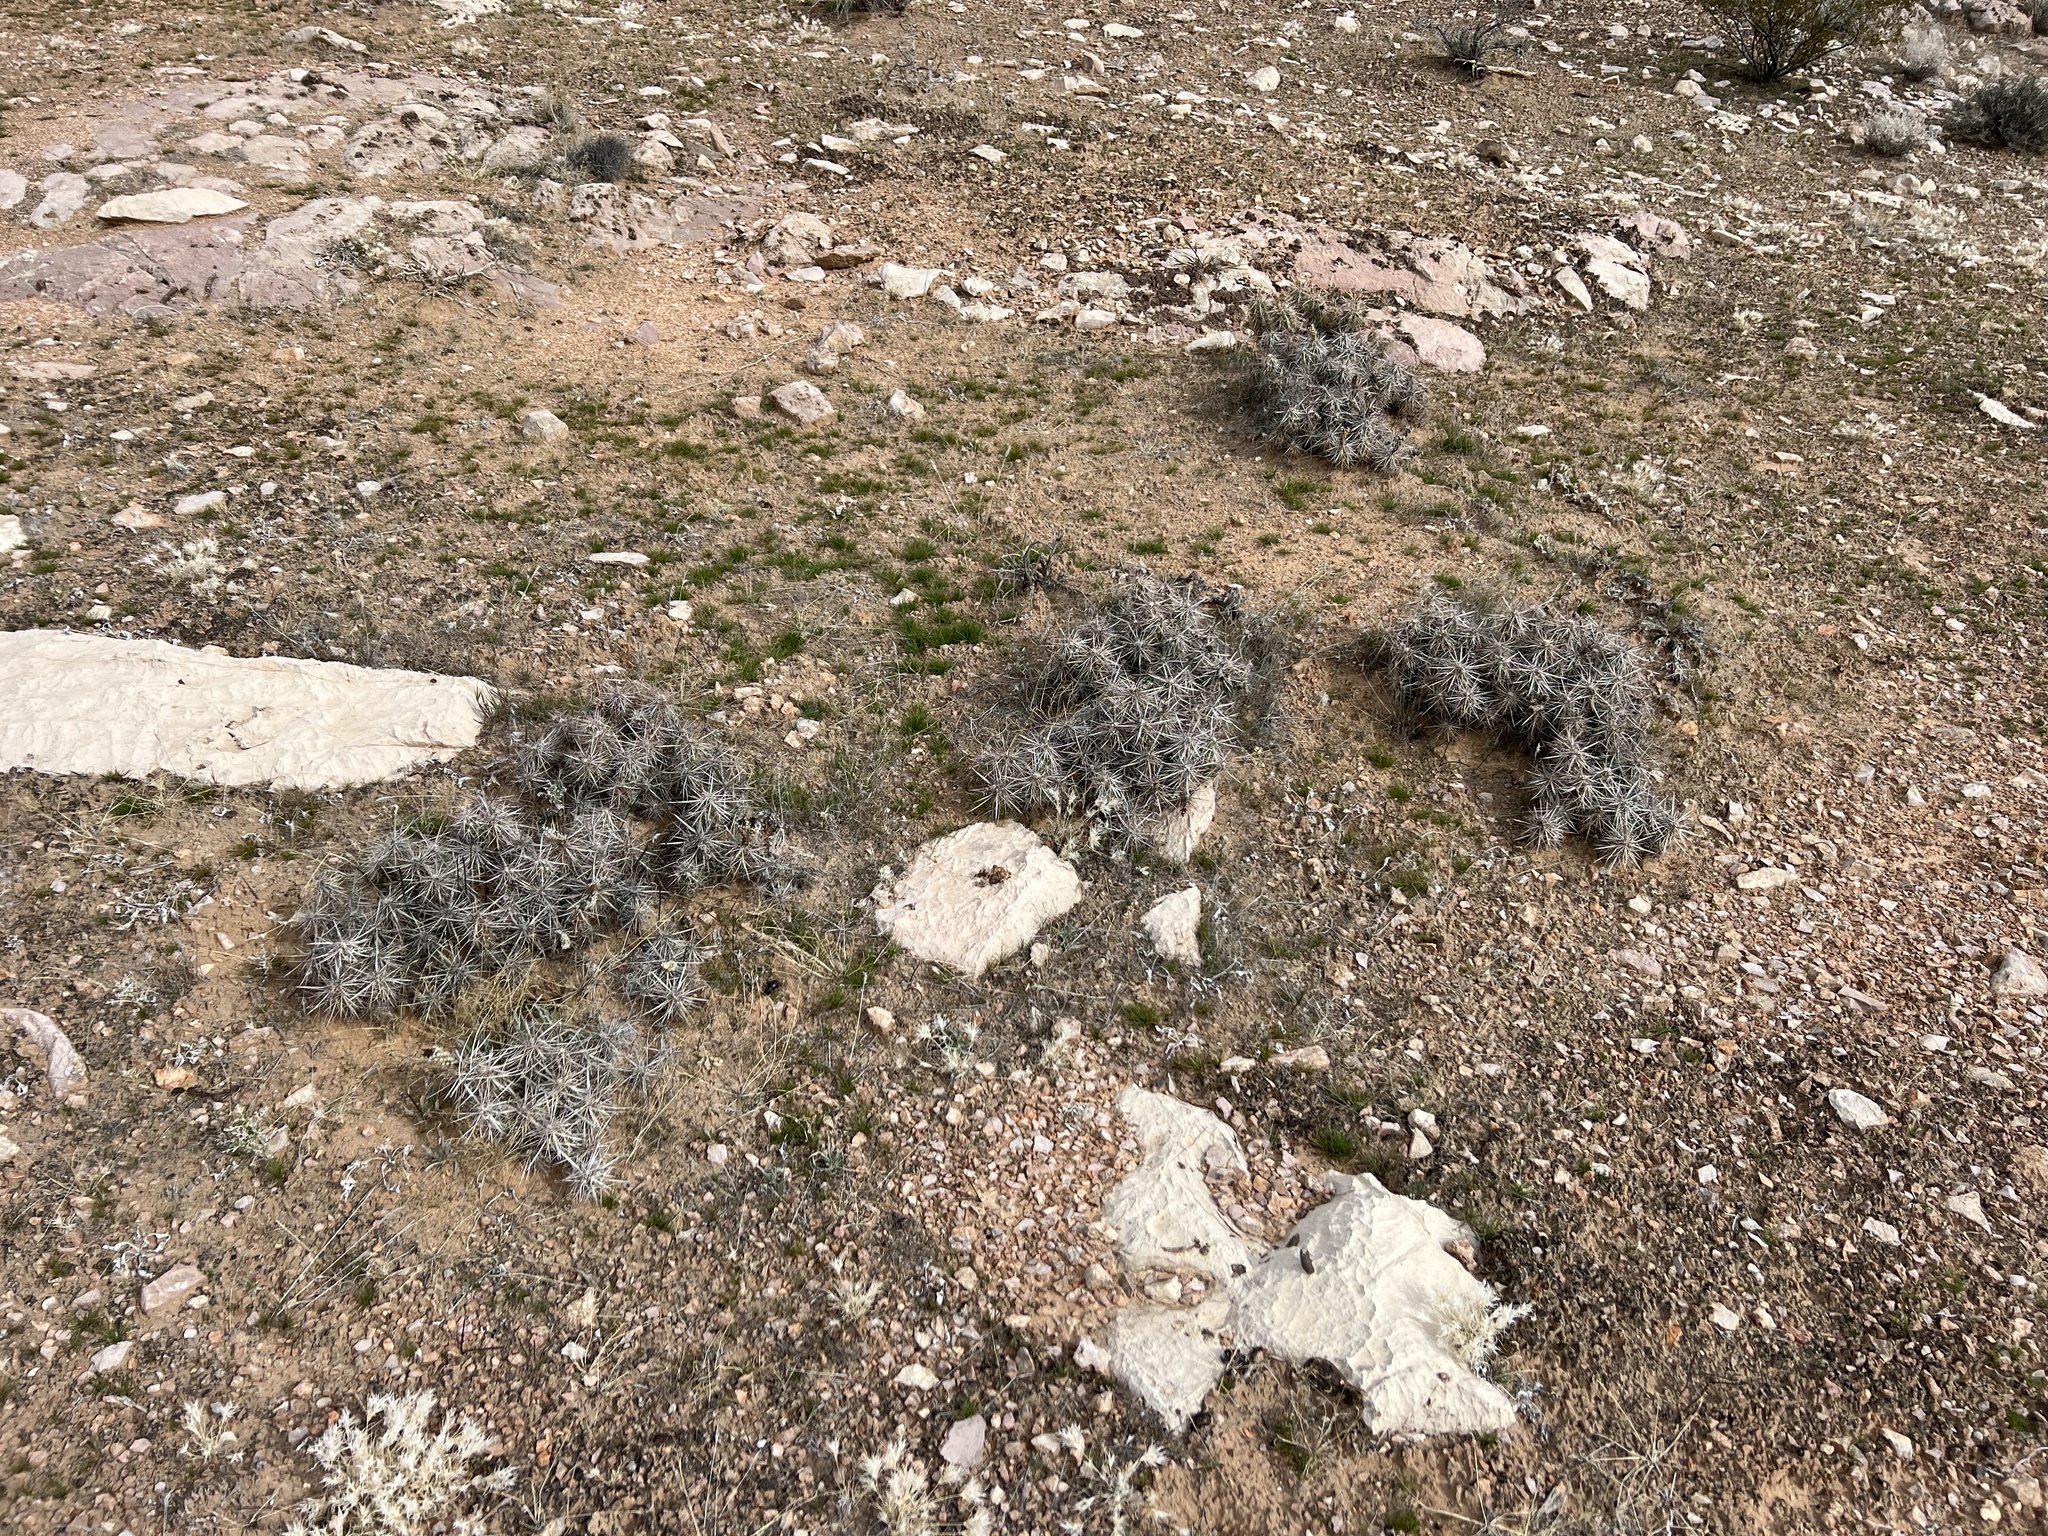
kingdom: Plantae
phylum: Tracheophyta
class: Magnoliopsida
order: Caryophyllales
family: Cactaceae
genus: Grusonia
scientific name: Grusonia parishiorum
